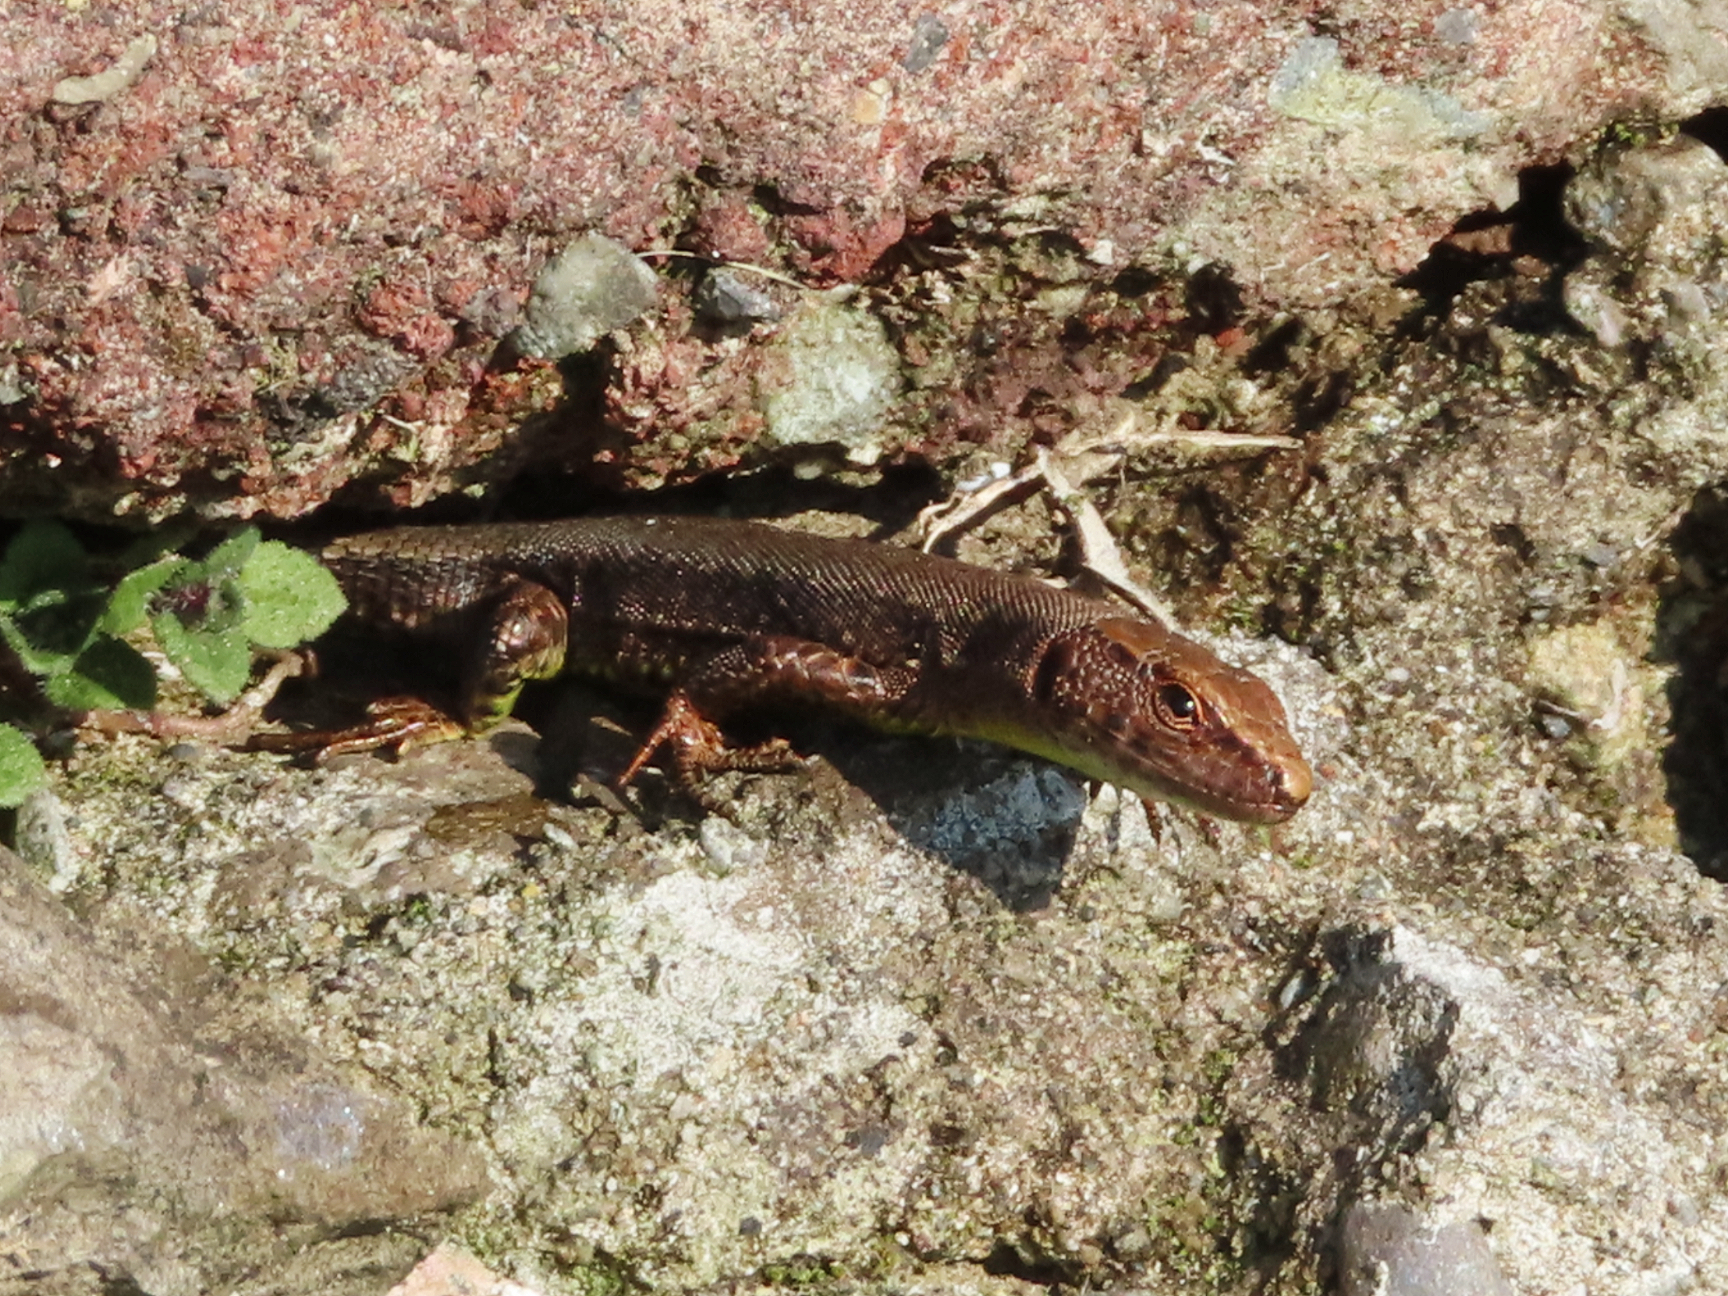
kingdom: Animalia
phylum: Chordata
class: Squamata
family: Lacertidae
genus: Darevskia
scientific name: Darevskia derjugini
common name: Derjugin's lizard
